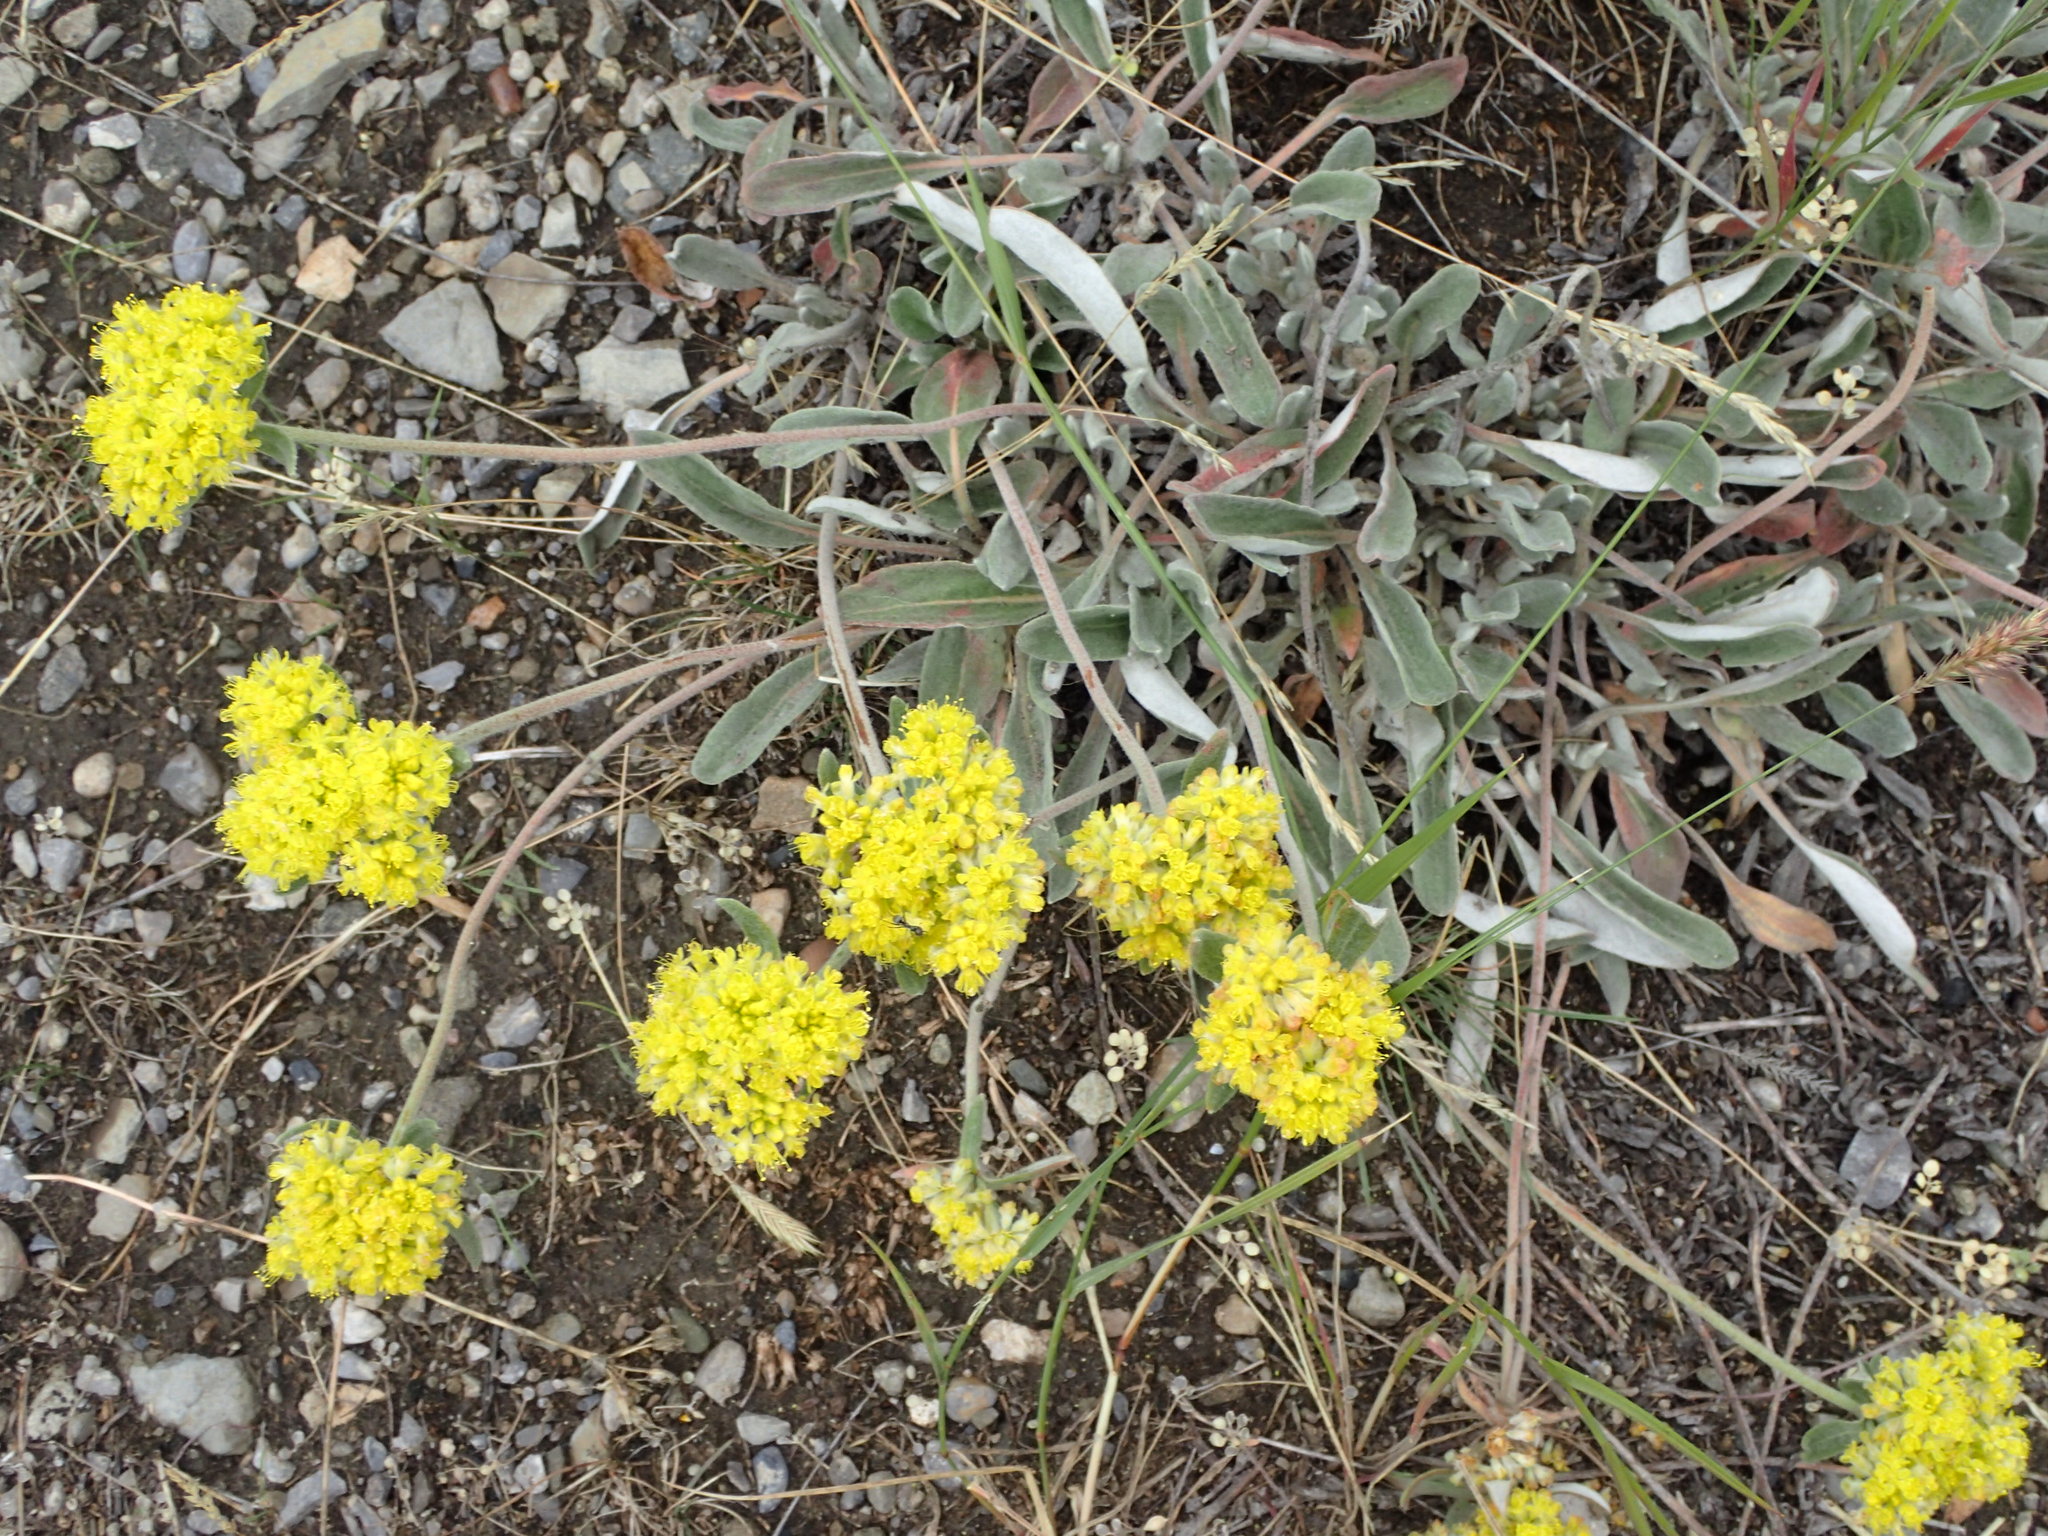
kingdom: Plantae
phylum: Tracheophyta
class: Magnoliopsida
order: Caryophyllales
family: Polygonaceae
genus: Eriogonum
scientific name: Eriogonum flavum
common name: Alpine golden wild buckwheat
